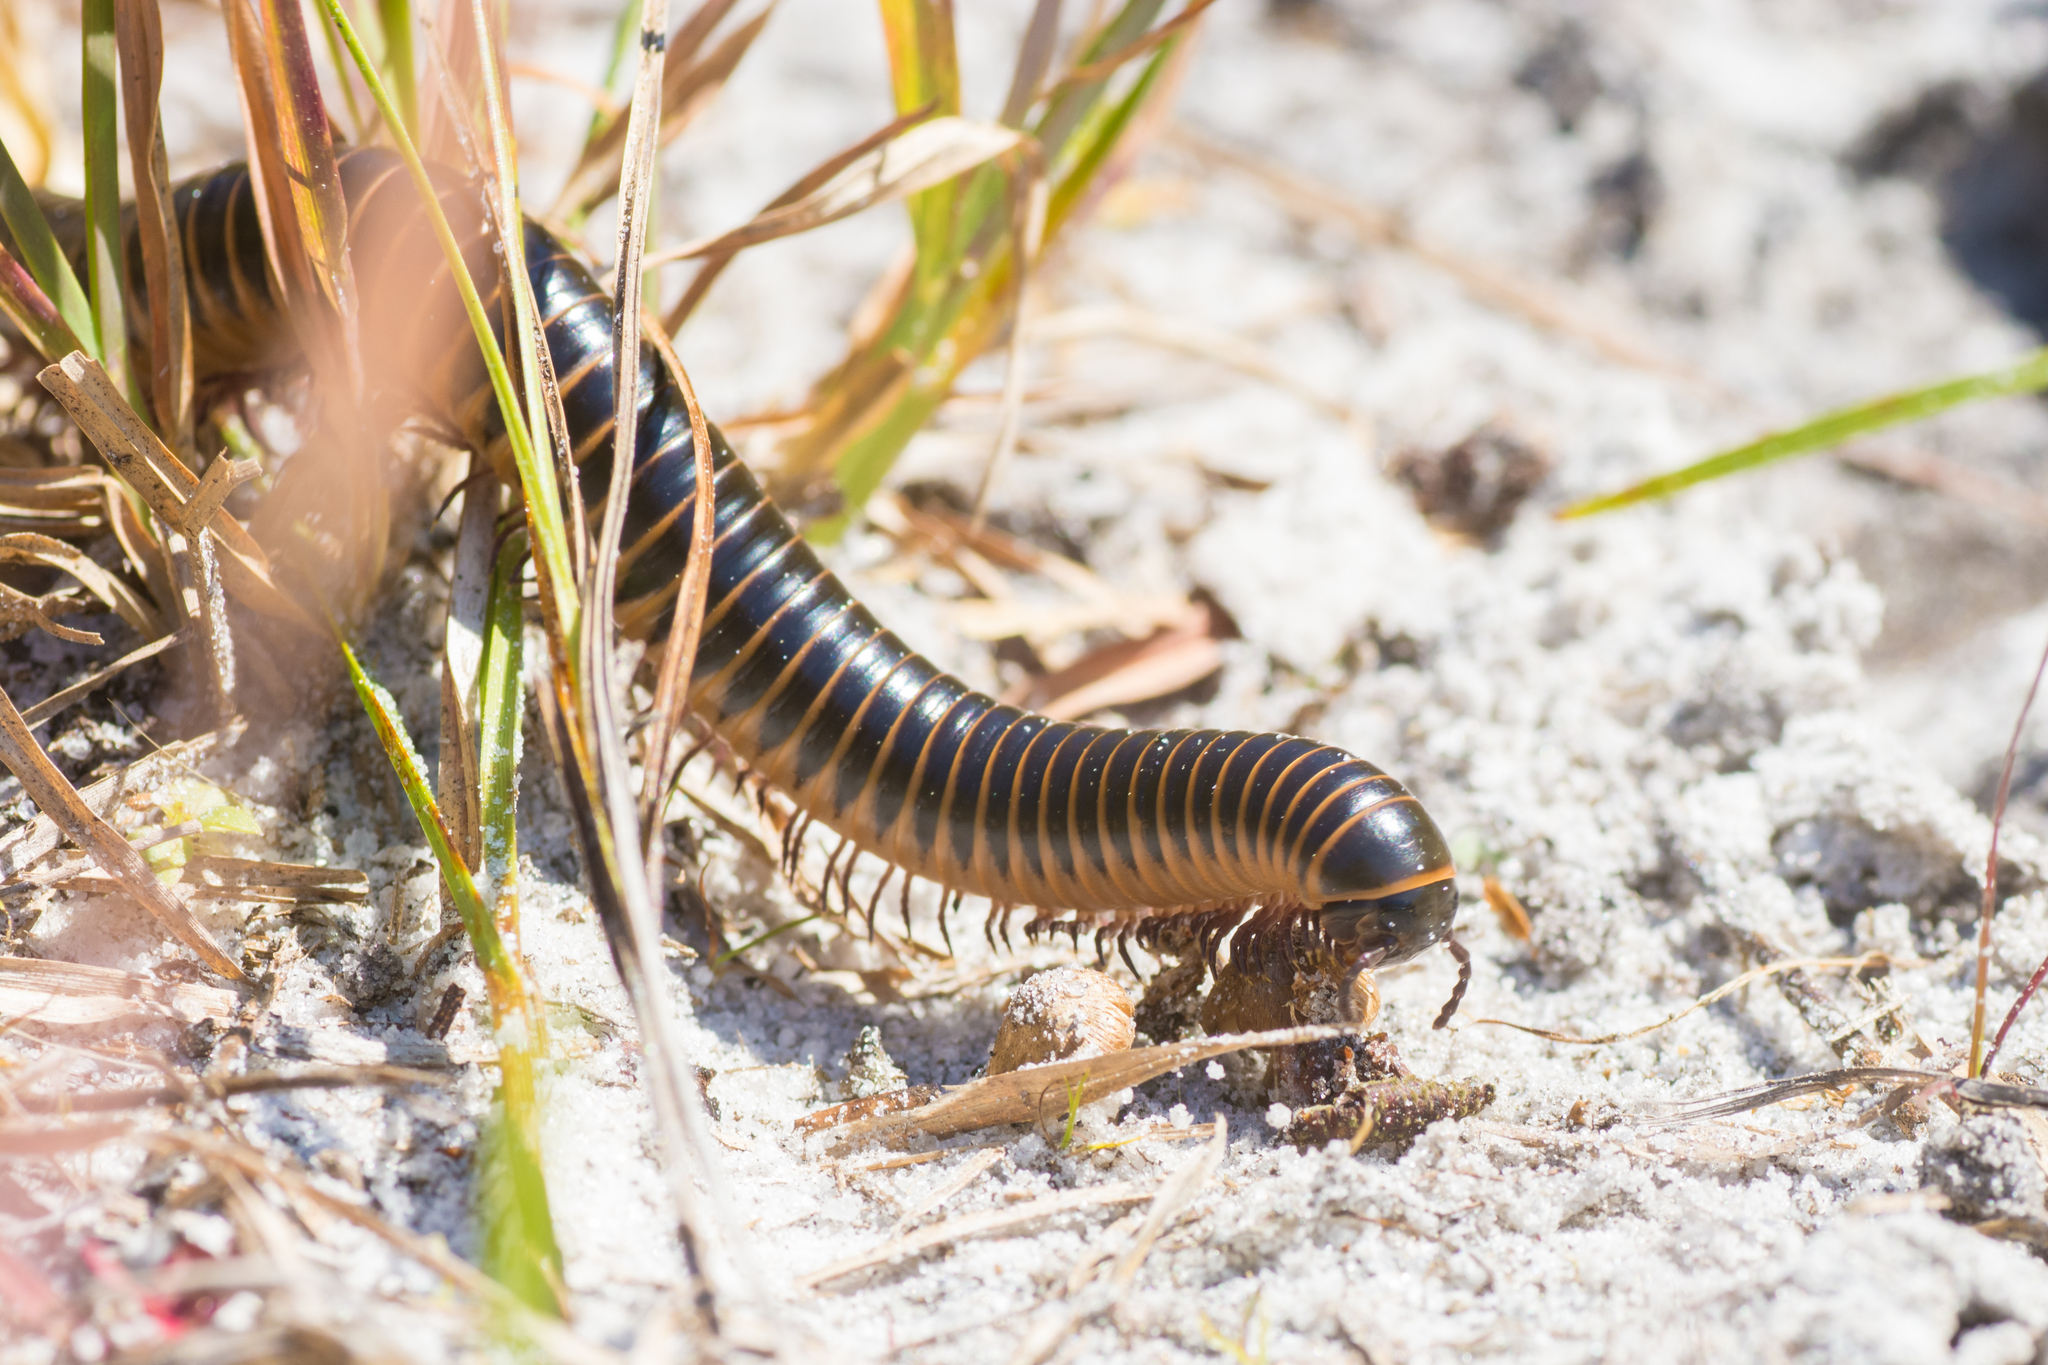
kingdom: Animalia
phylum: Arthropoda
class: Diplopoda
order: Spirobolida
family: Spirobolidae
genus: Chicobolus
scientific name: Chicobolus spinigerus
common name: Florida ivory millipede
